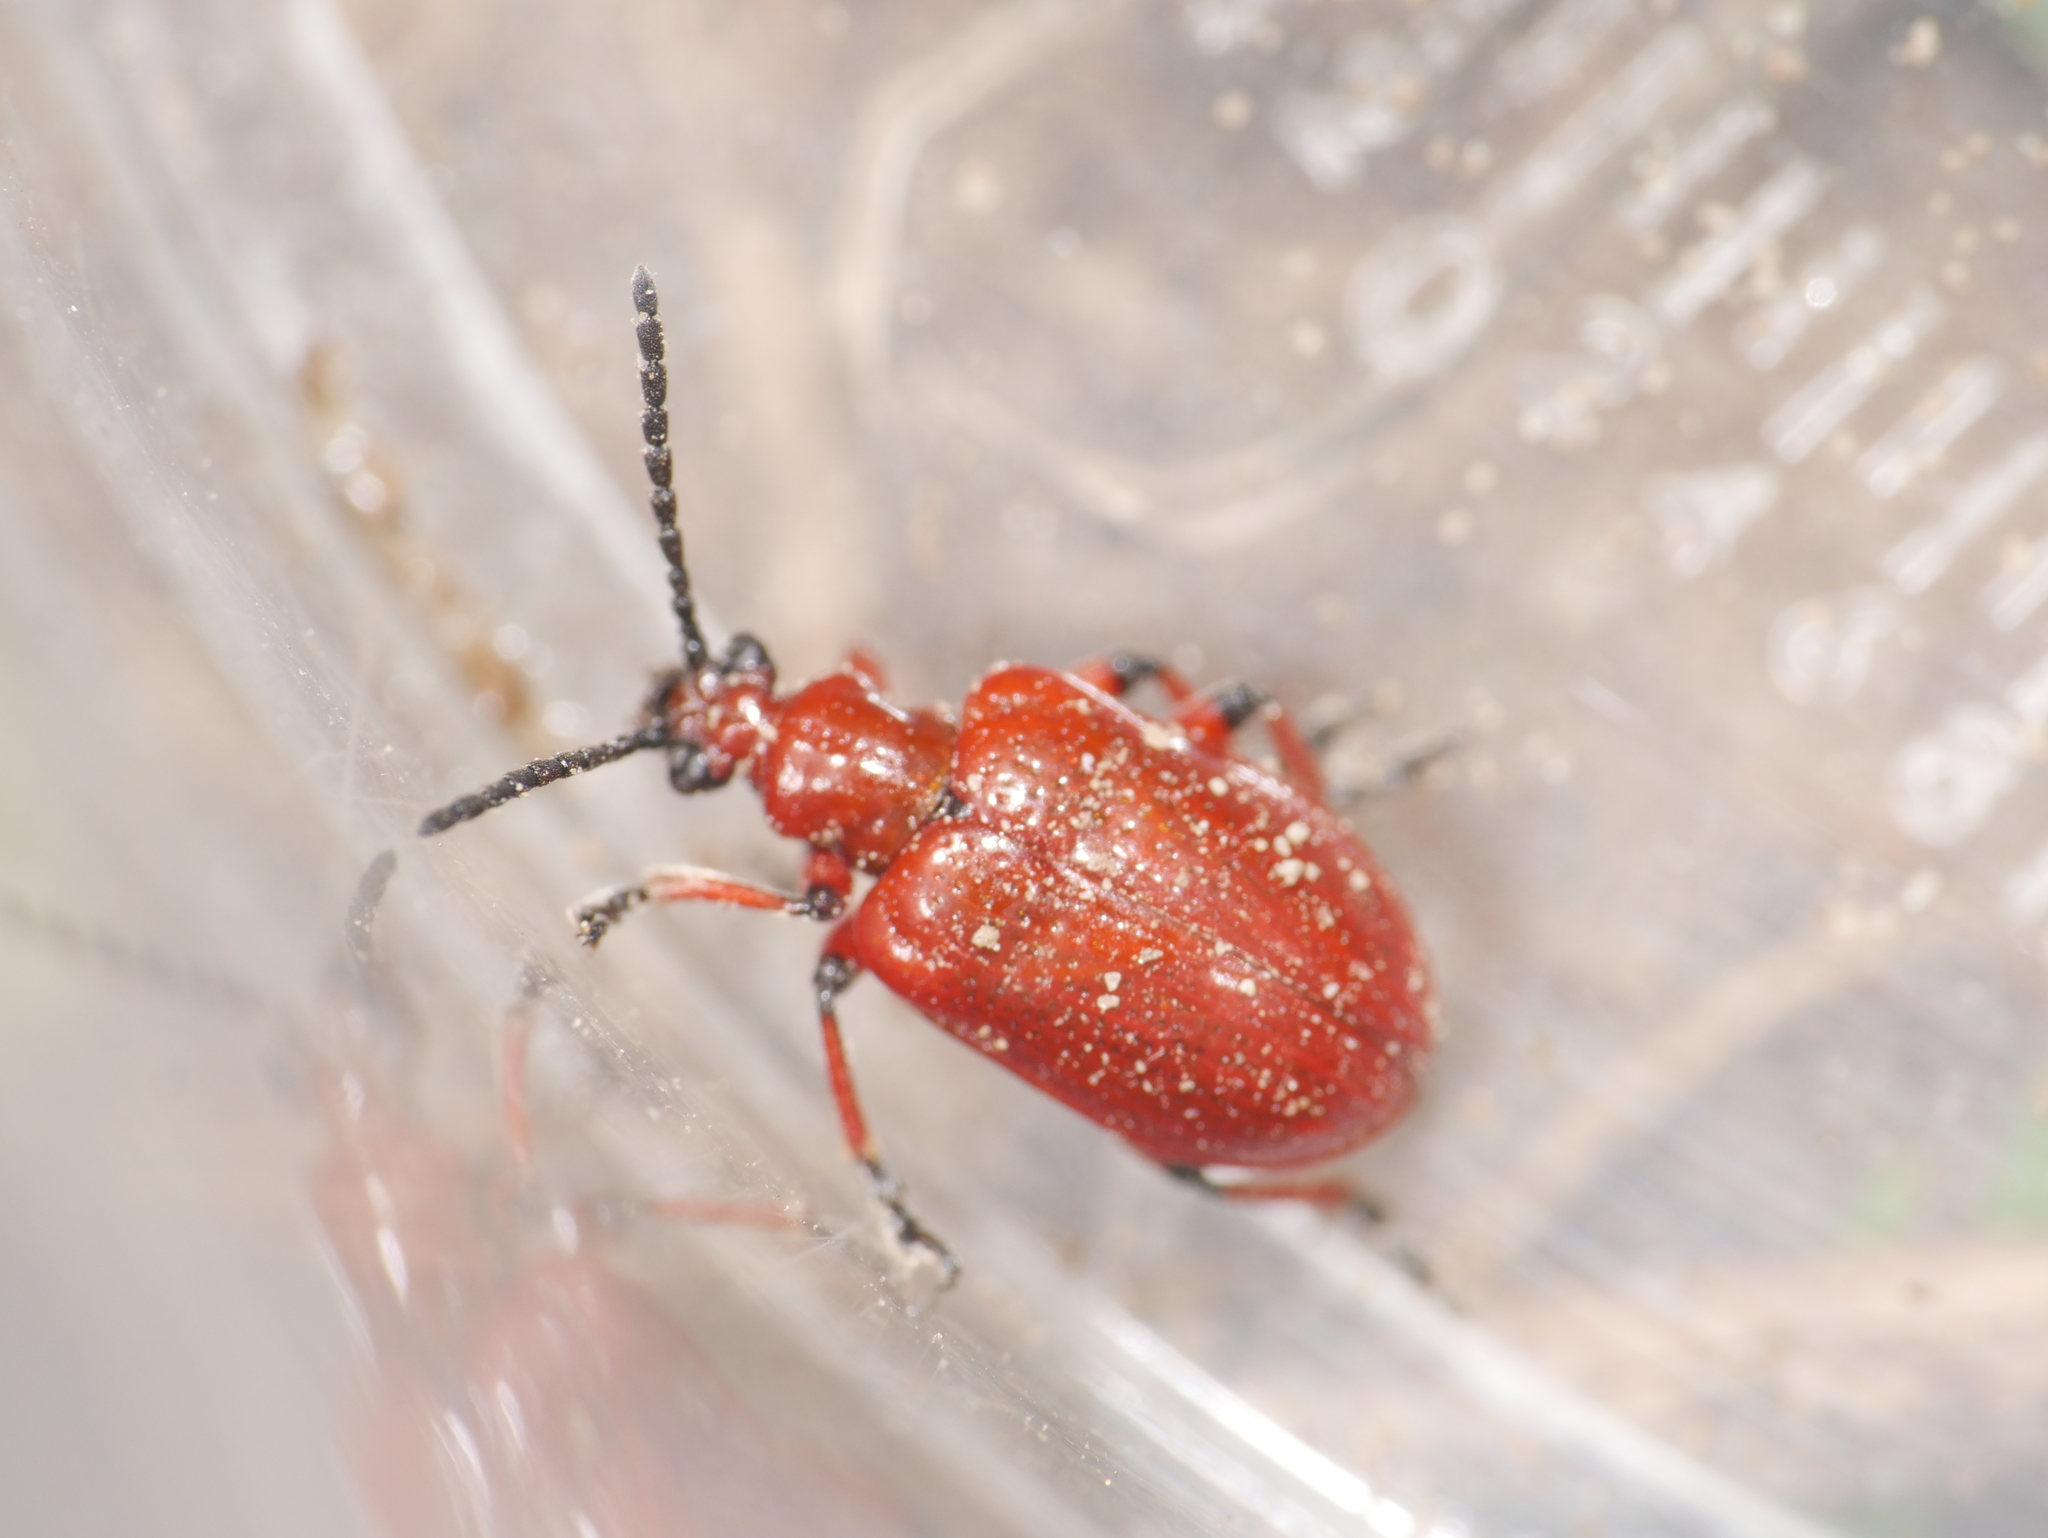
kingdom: Animalia
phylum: Arthropoda
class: Insecta
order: Coleoptera
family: Chrysomelidae
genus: Lilioceris
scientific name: Lilioceris merdigera
